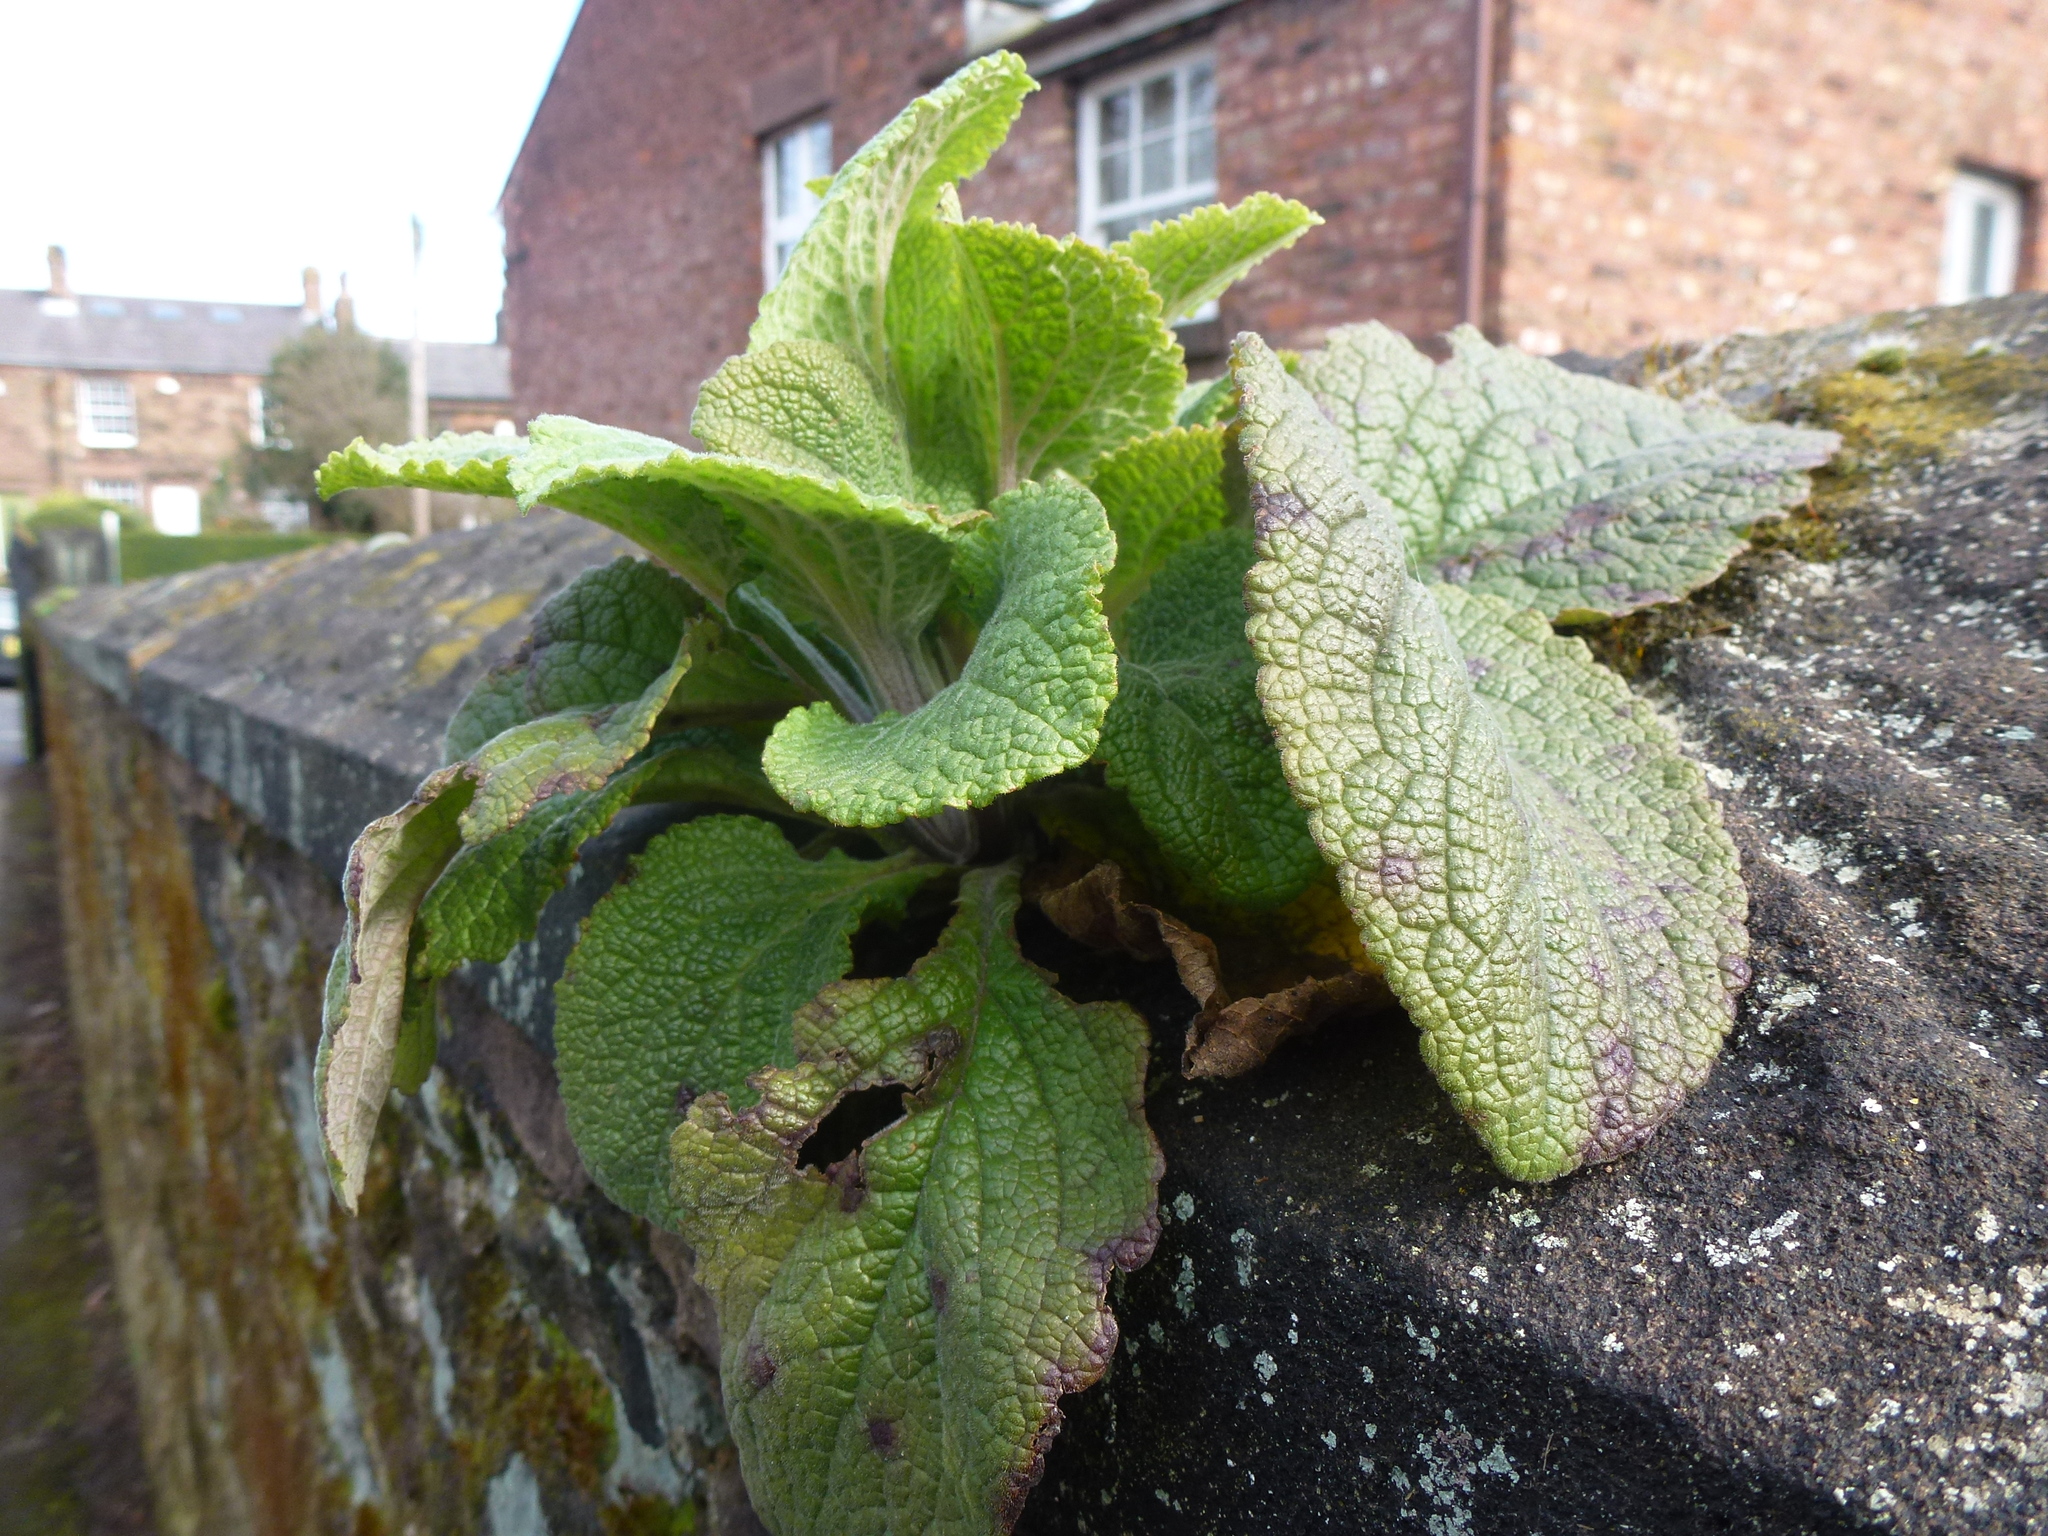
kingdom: Plantae
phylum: Tracheophyta
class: Magnoliopsida
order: Lamiales
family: Plantaginaceae
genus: Digitalis
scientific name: Digitalis purpurea
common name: Foxglove
